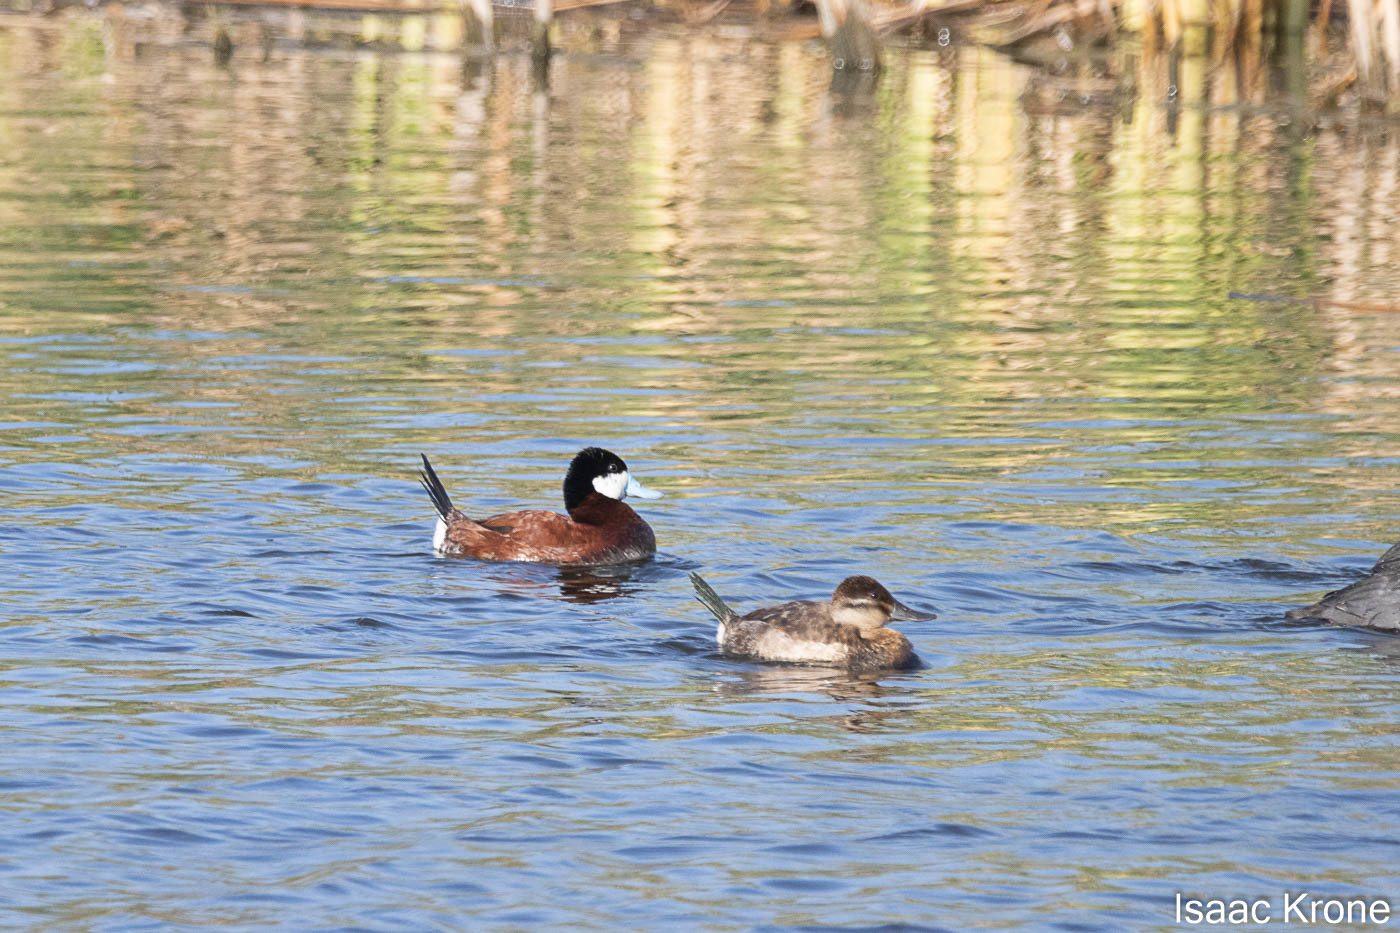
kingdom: Animalia
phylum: Chordata
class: Aves
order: Anseriformes
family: Anatidae
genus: Oxyura
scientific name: Oxyura jamaicensis
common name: Ruddy duck
